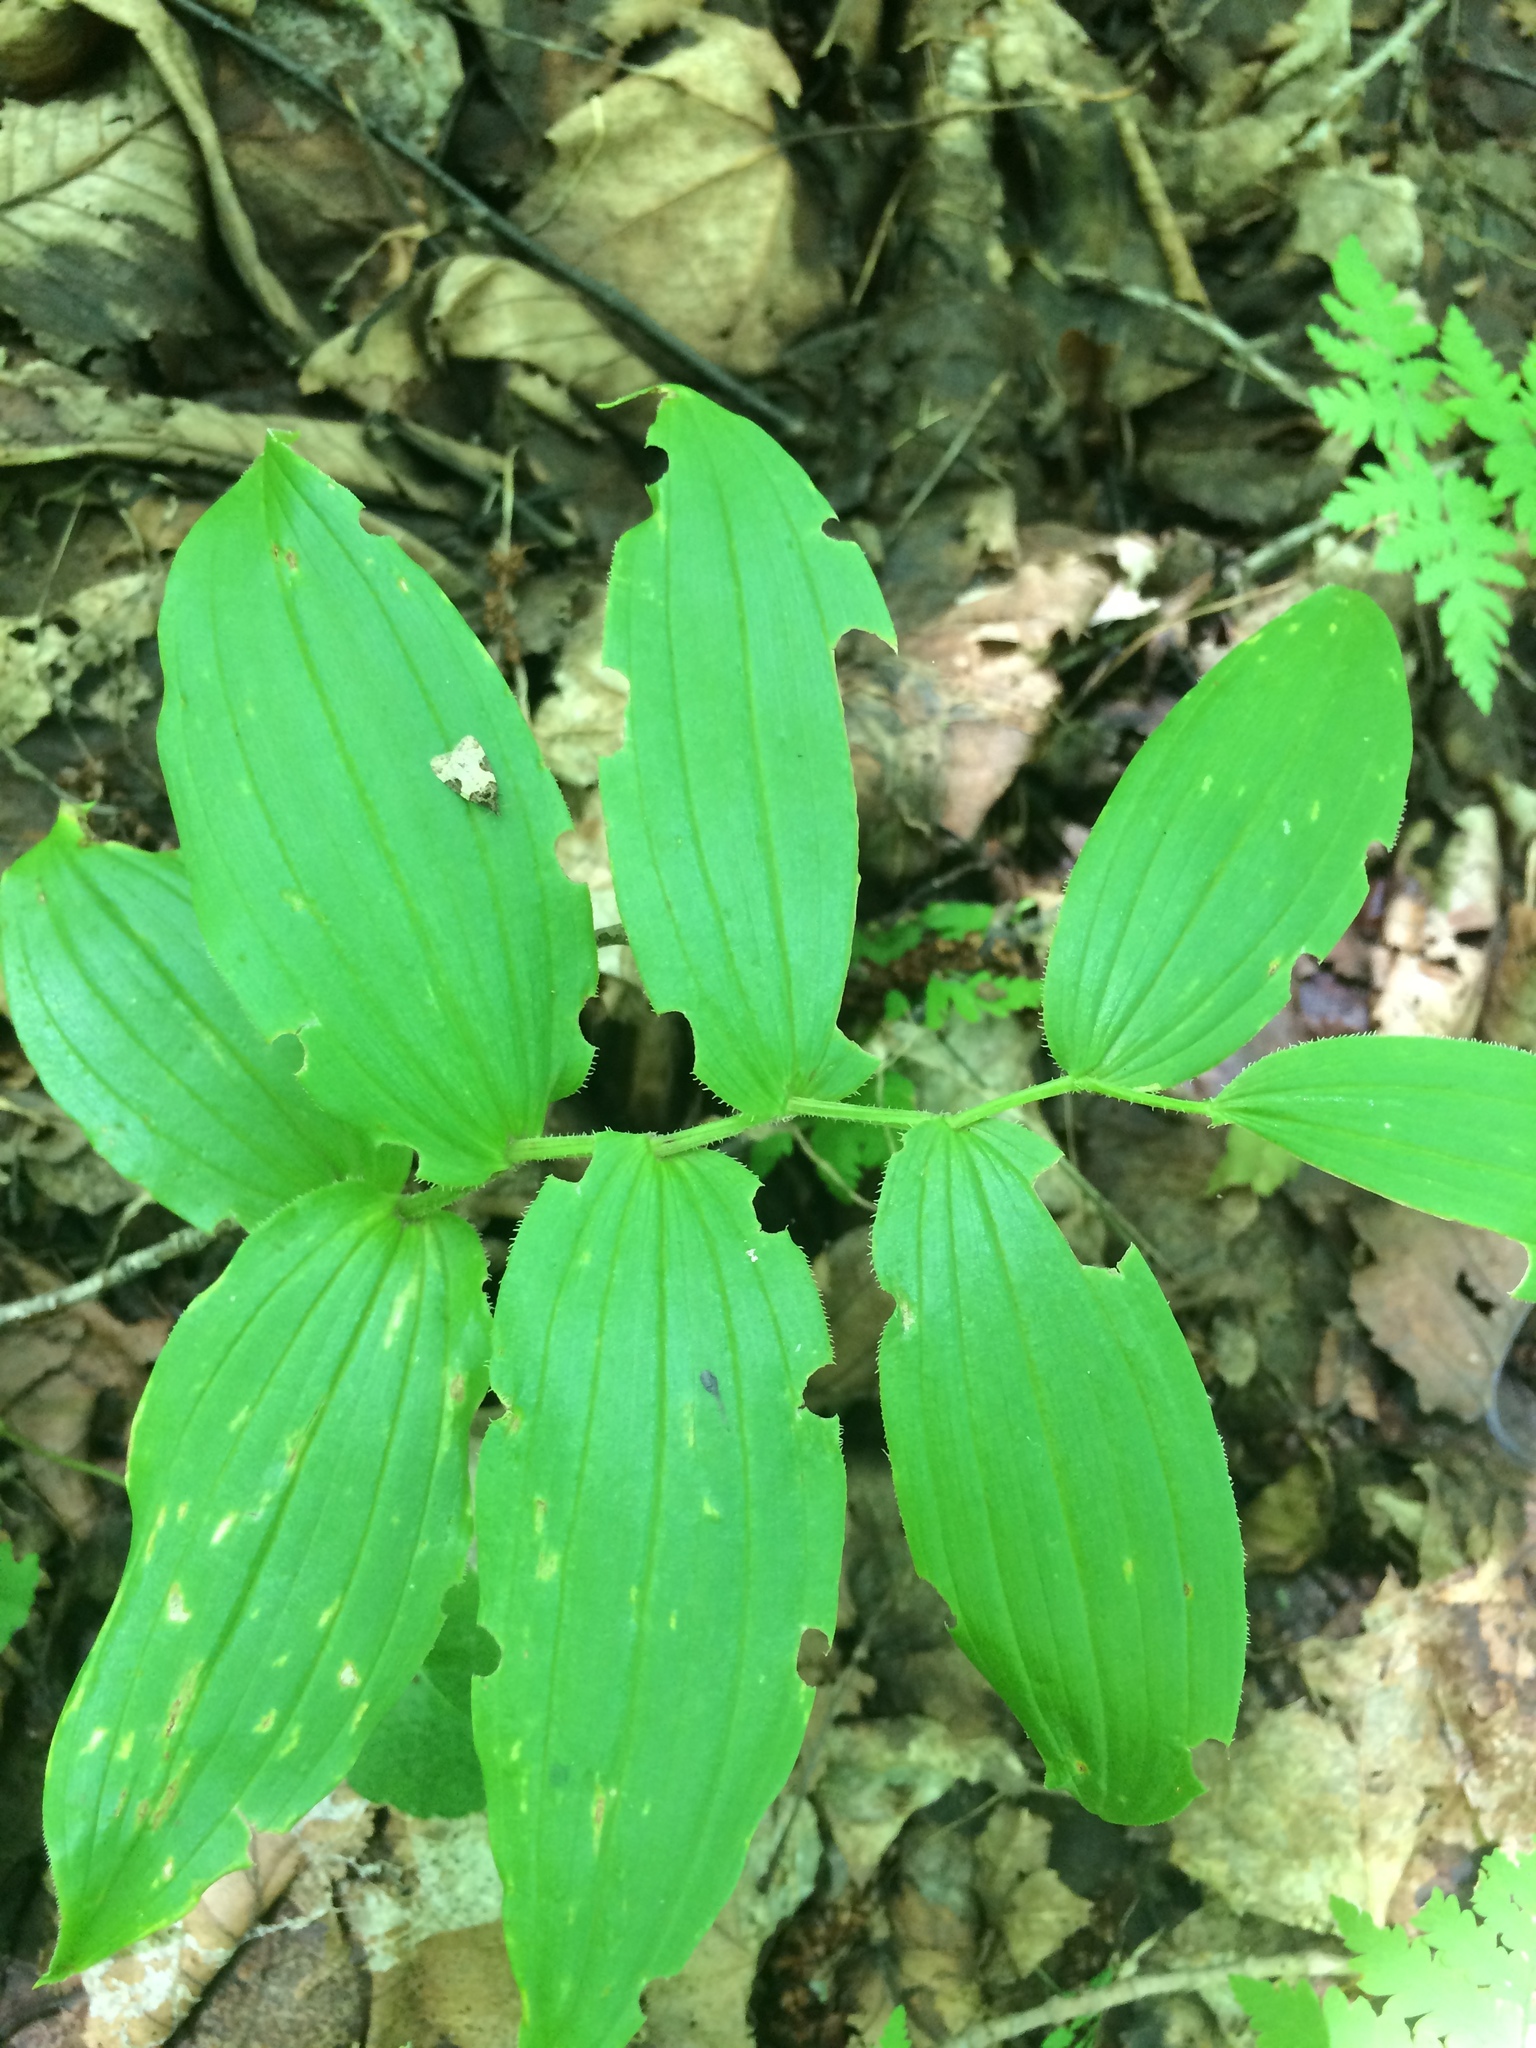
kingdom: Plantae
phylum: Tracheophyta
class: Liliopsida
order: Liliales
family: Liliaceae
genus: Streptopus
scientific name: Streptopus lanceolatus
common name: Rose mandarin
